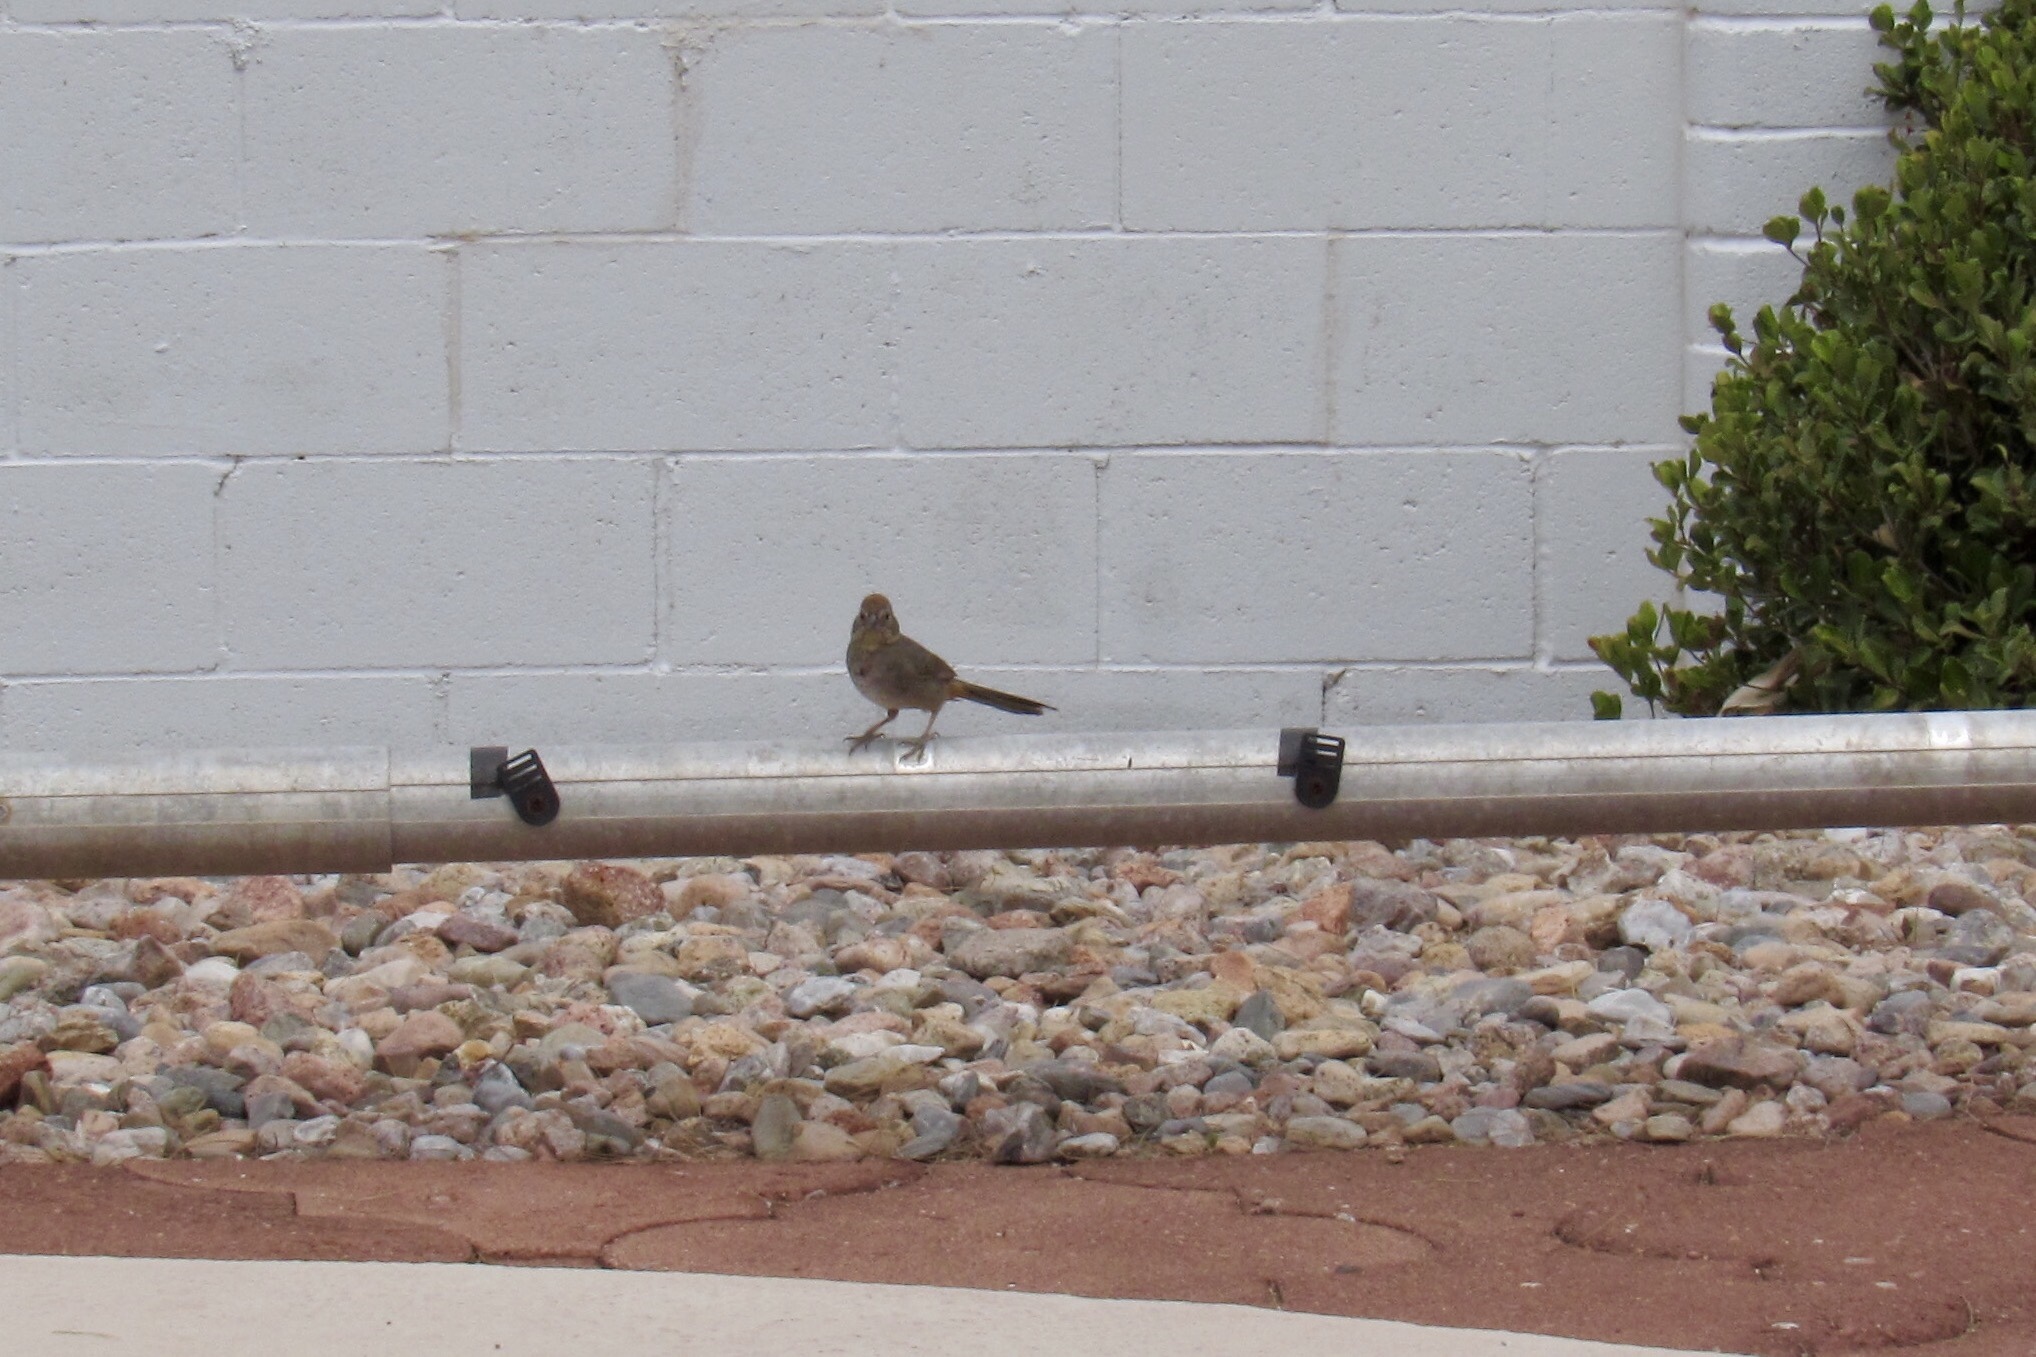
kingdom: Animalia
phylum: Chordata
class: Aves
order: Passeriformes
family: Passerellidae
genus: Melozone
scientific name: Melozone fusca
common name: Canyon towhee
